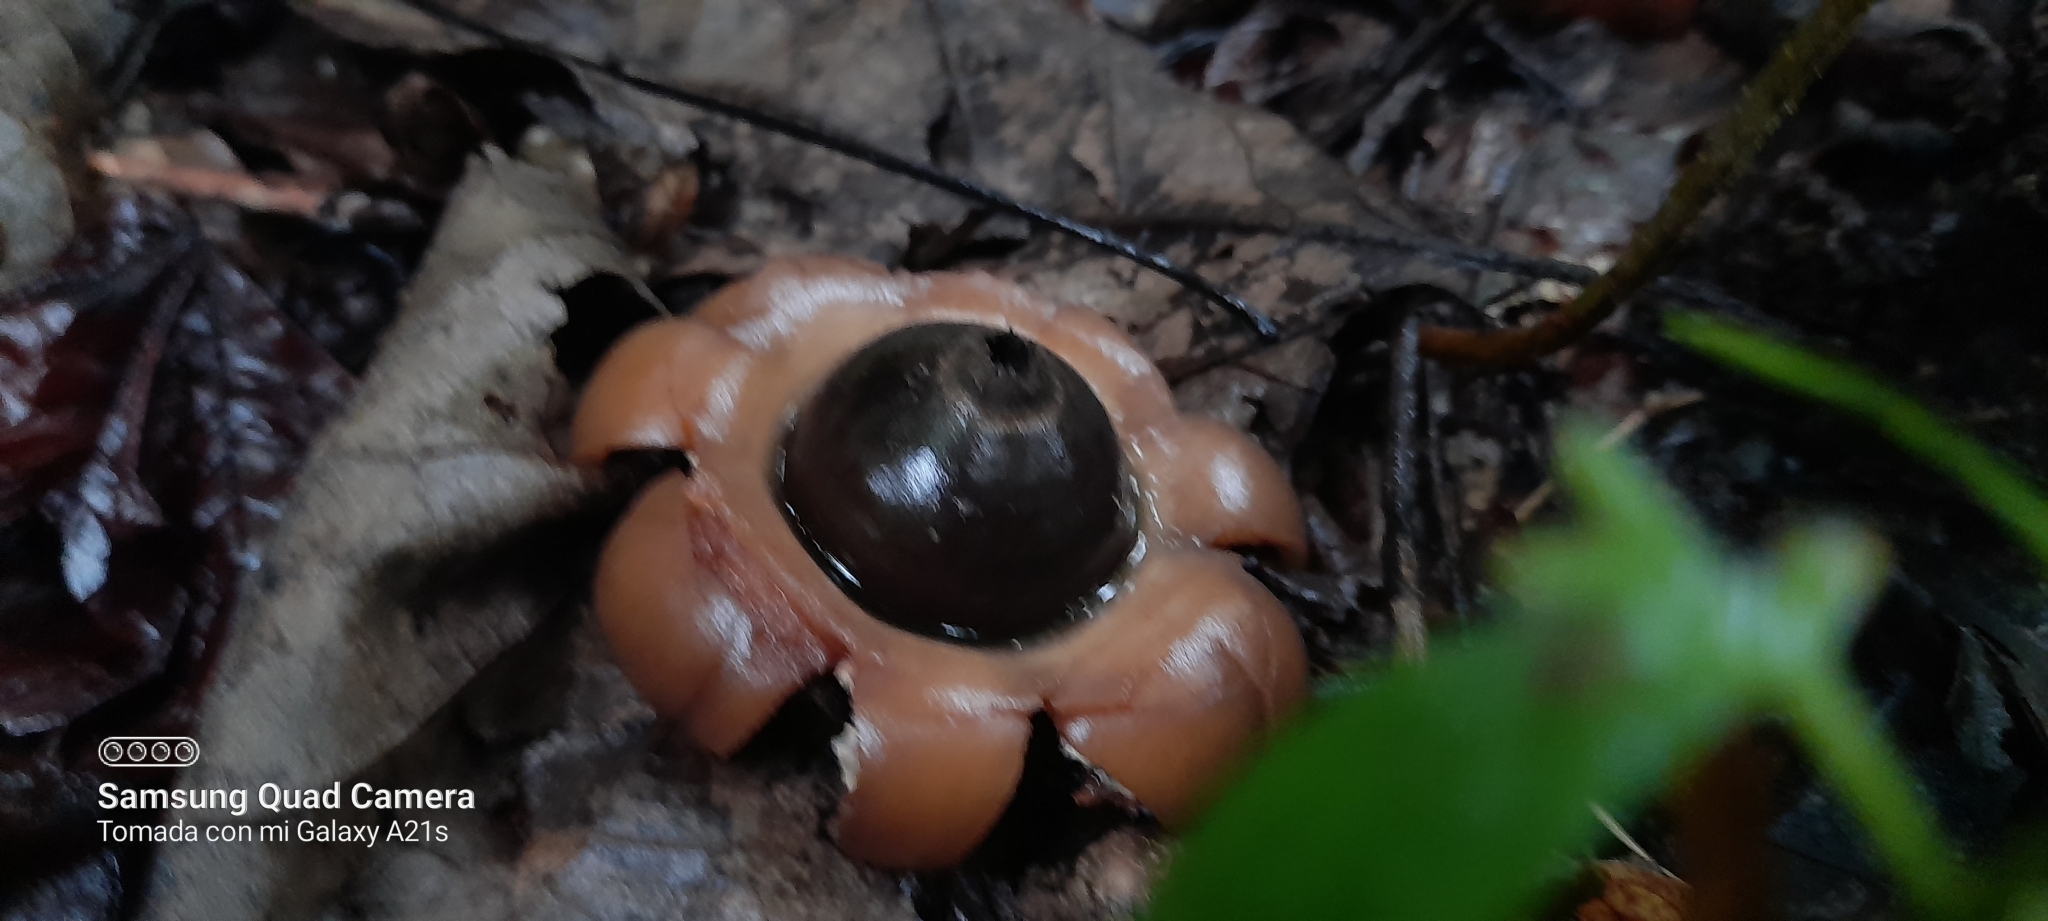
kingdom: Fungi
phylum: Basidiomycota
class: Agaricomycetes
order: Geastrales
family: Geastraceae
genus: Geastrum
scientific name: Geastrum saccatum
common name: Rounded earthstar
